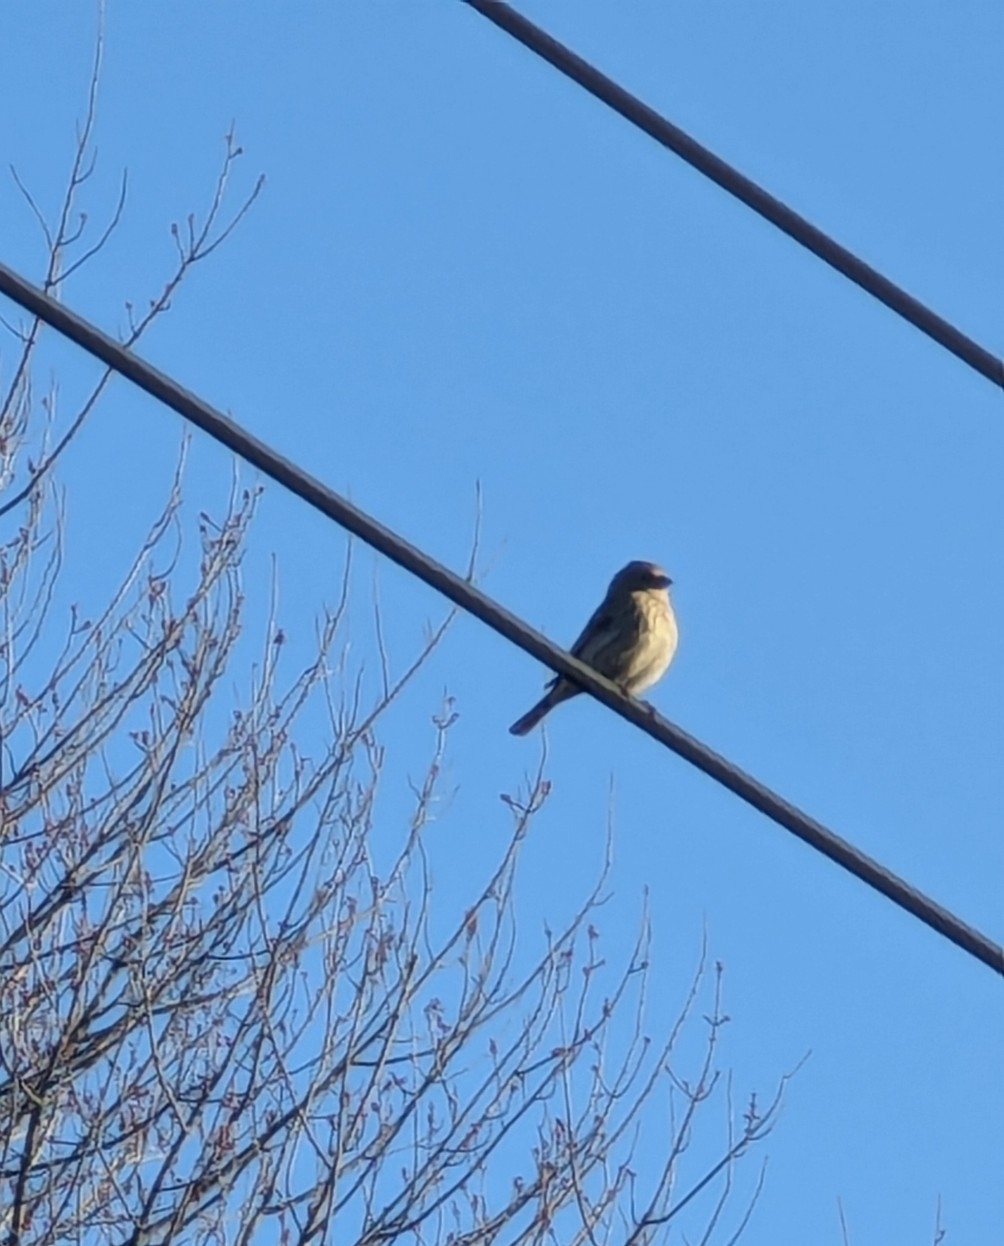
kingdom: Animalia
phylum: Chordata
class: Aves
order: Passeriformes
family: Fringillidae
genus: Haemorhous
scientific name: Haemorhous mexicanus
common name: House finch
